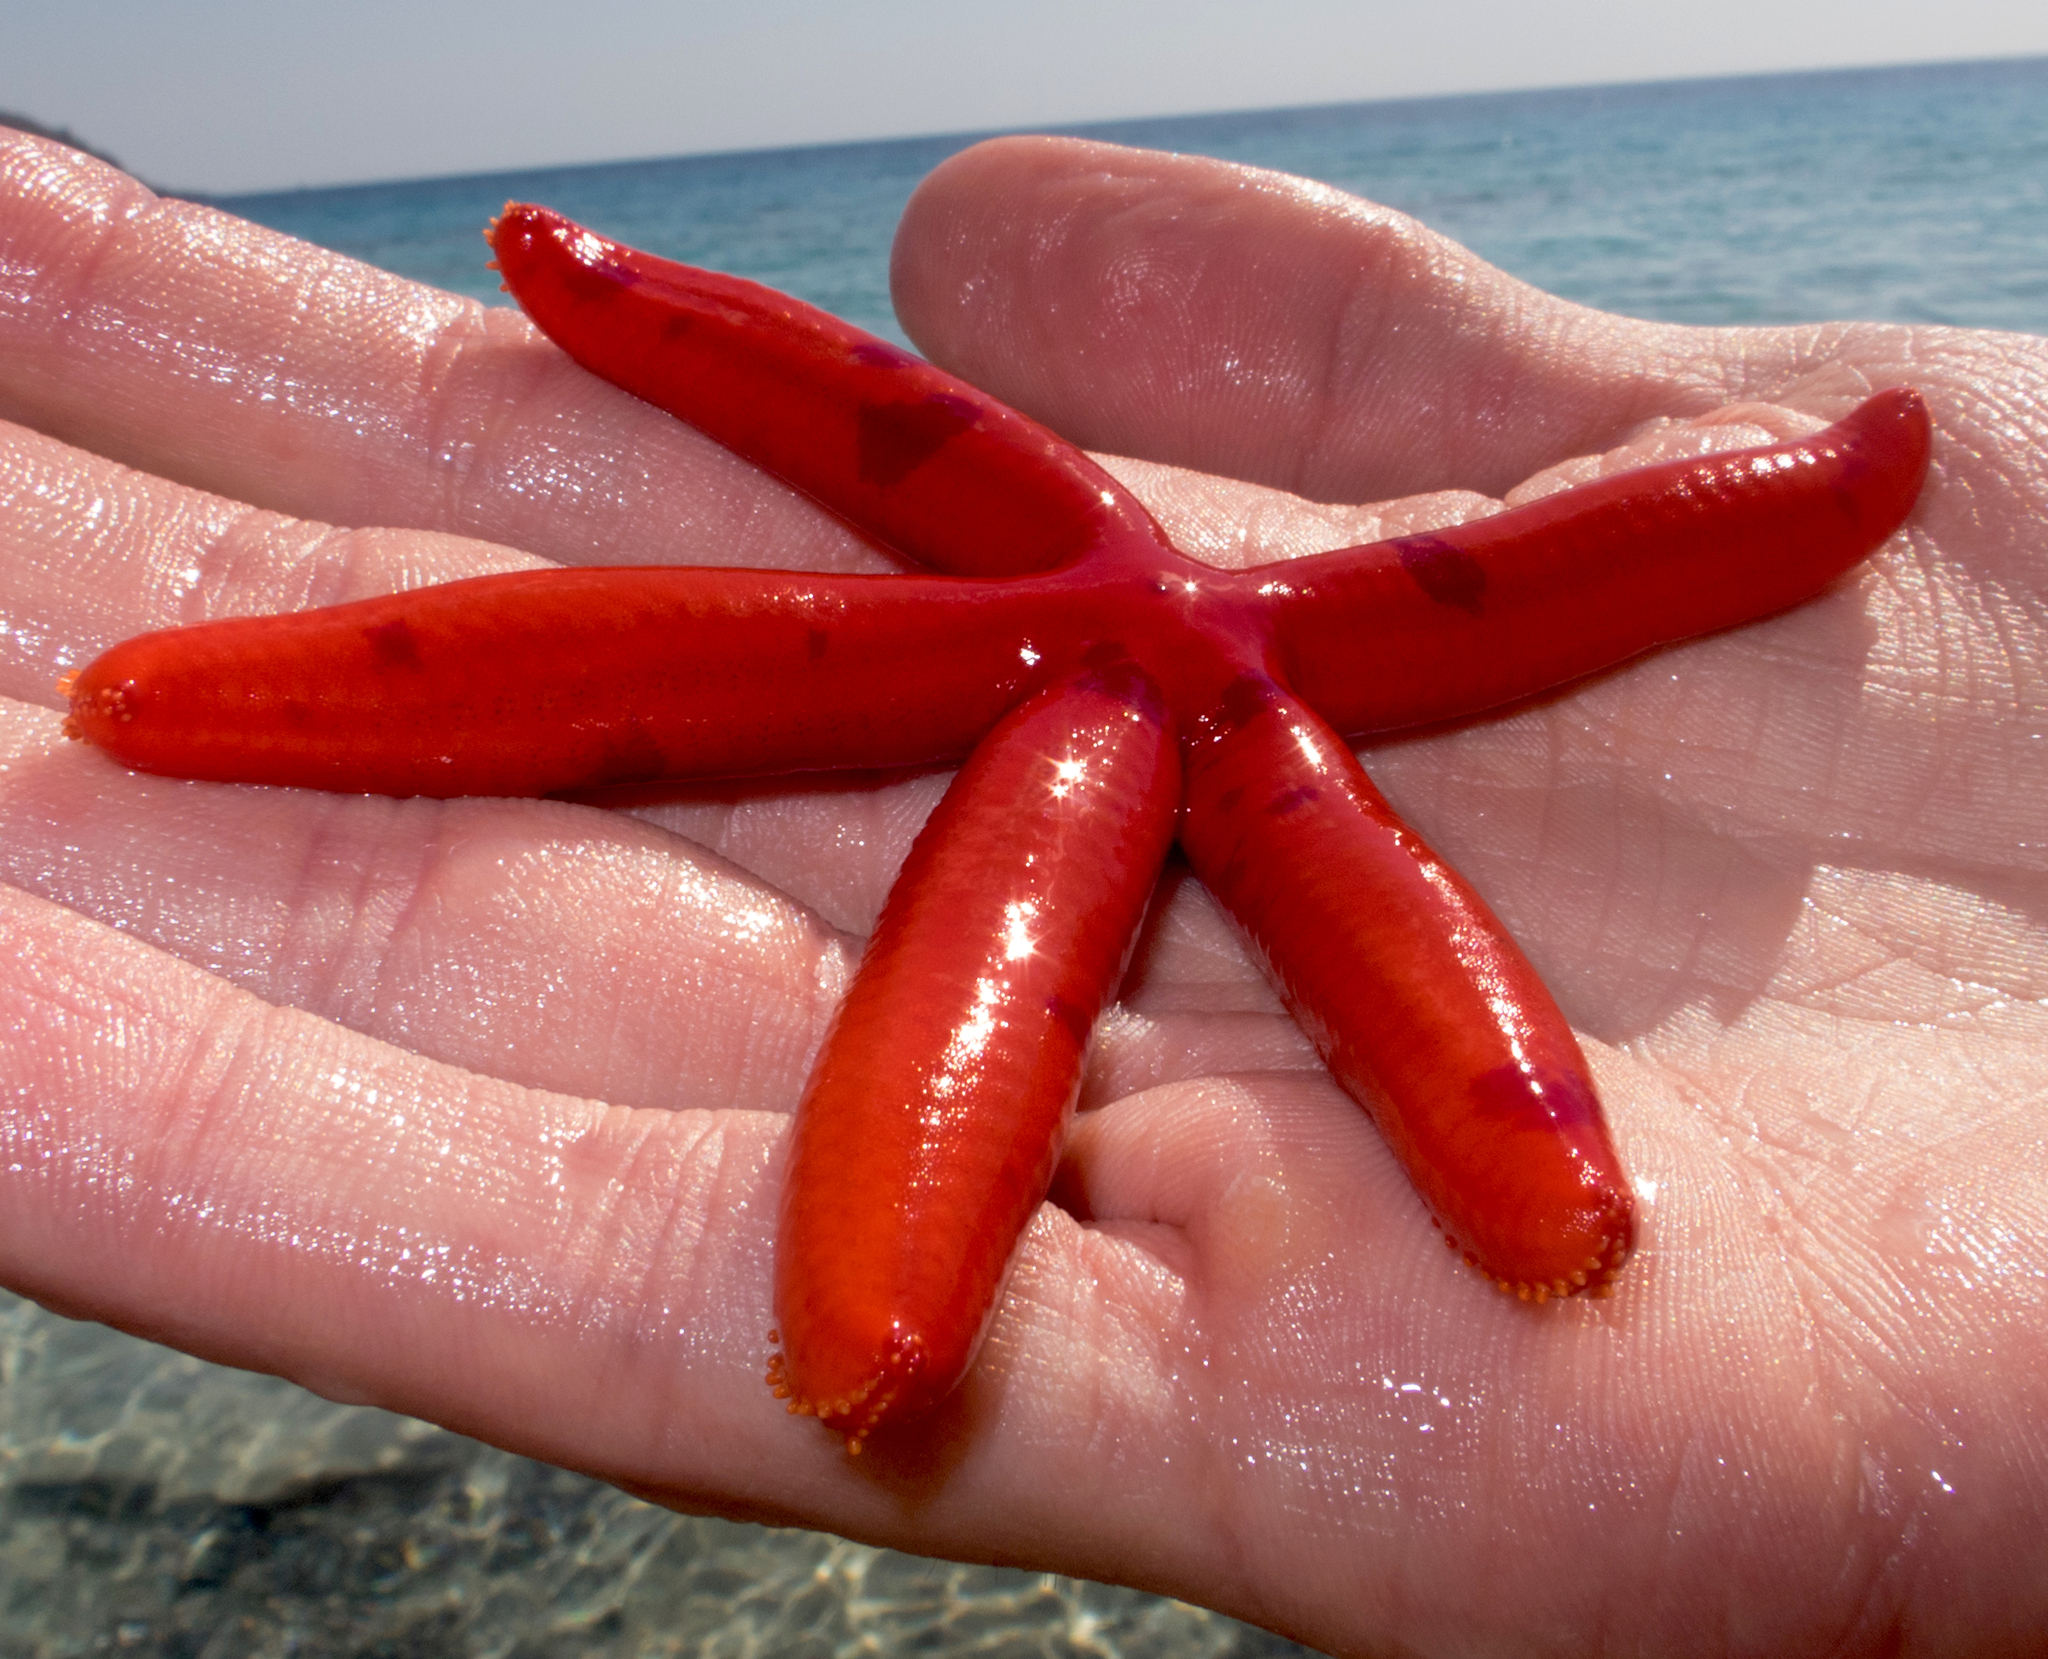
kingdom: Animalia
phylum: Echinodermata
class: Asteroidea
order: Valvatida
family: Ophidiasteridae
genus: Ophidiaster
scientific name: Ophidiaster ophidianus
